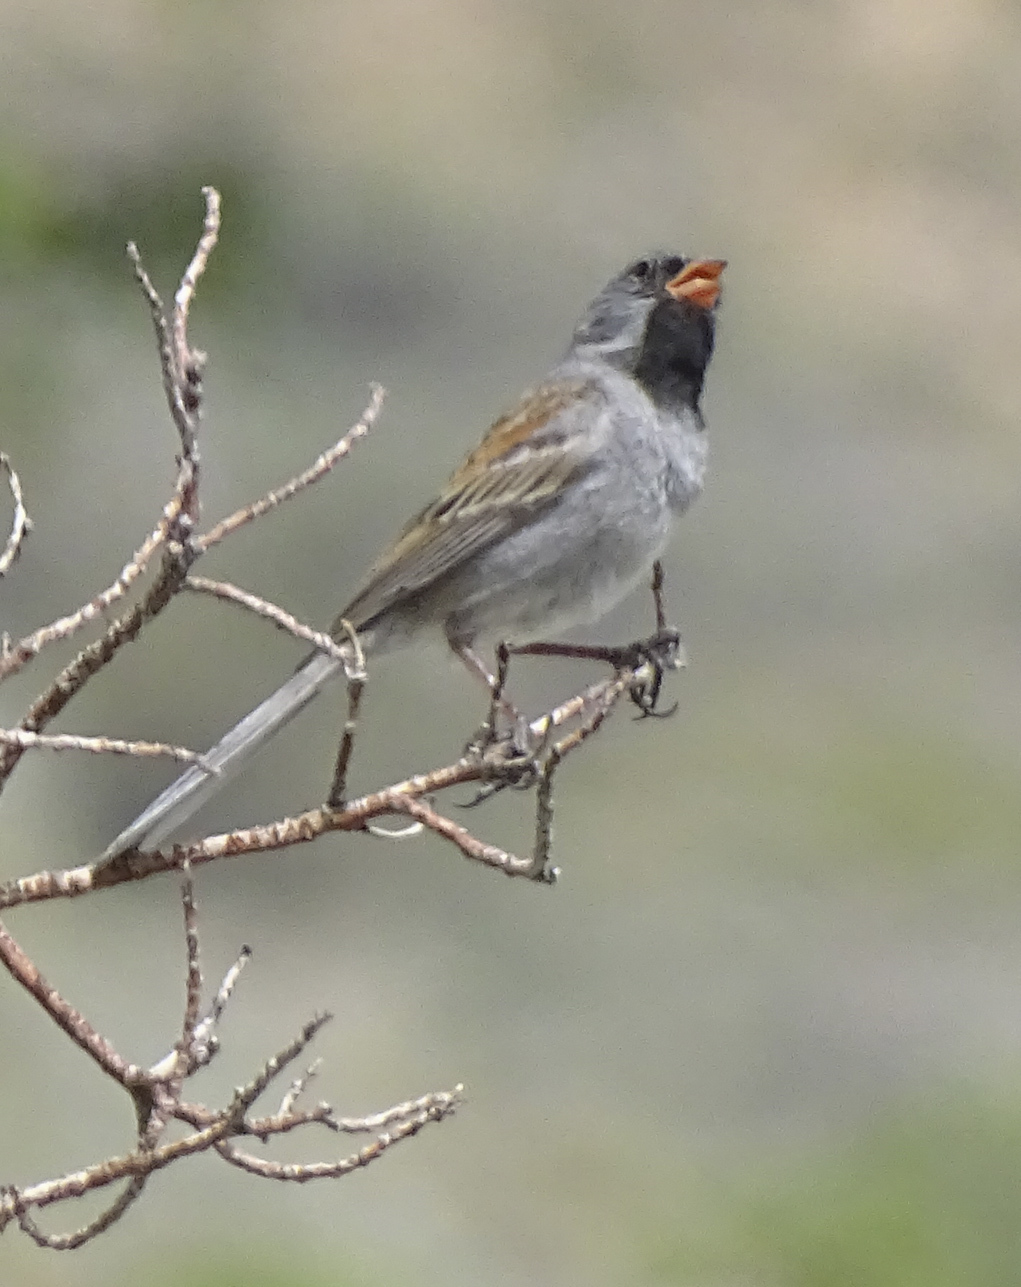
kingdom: Animalia
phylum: Chordata
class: Aves
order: Passeriformes
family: Passerellidae
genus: Spizella
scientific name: Spizella atrogularis
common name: Black-chinned sparrow
